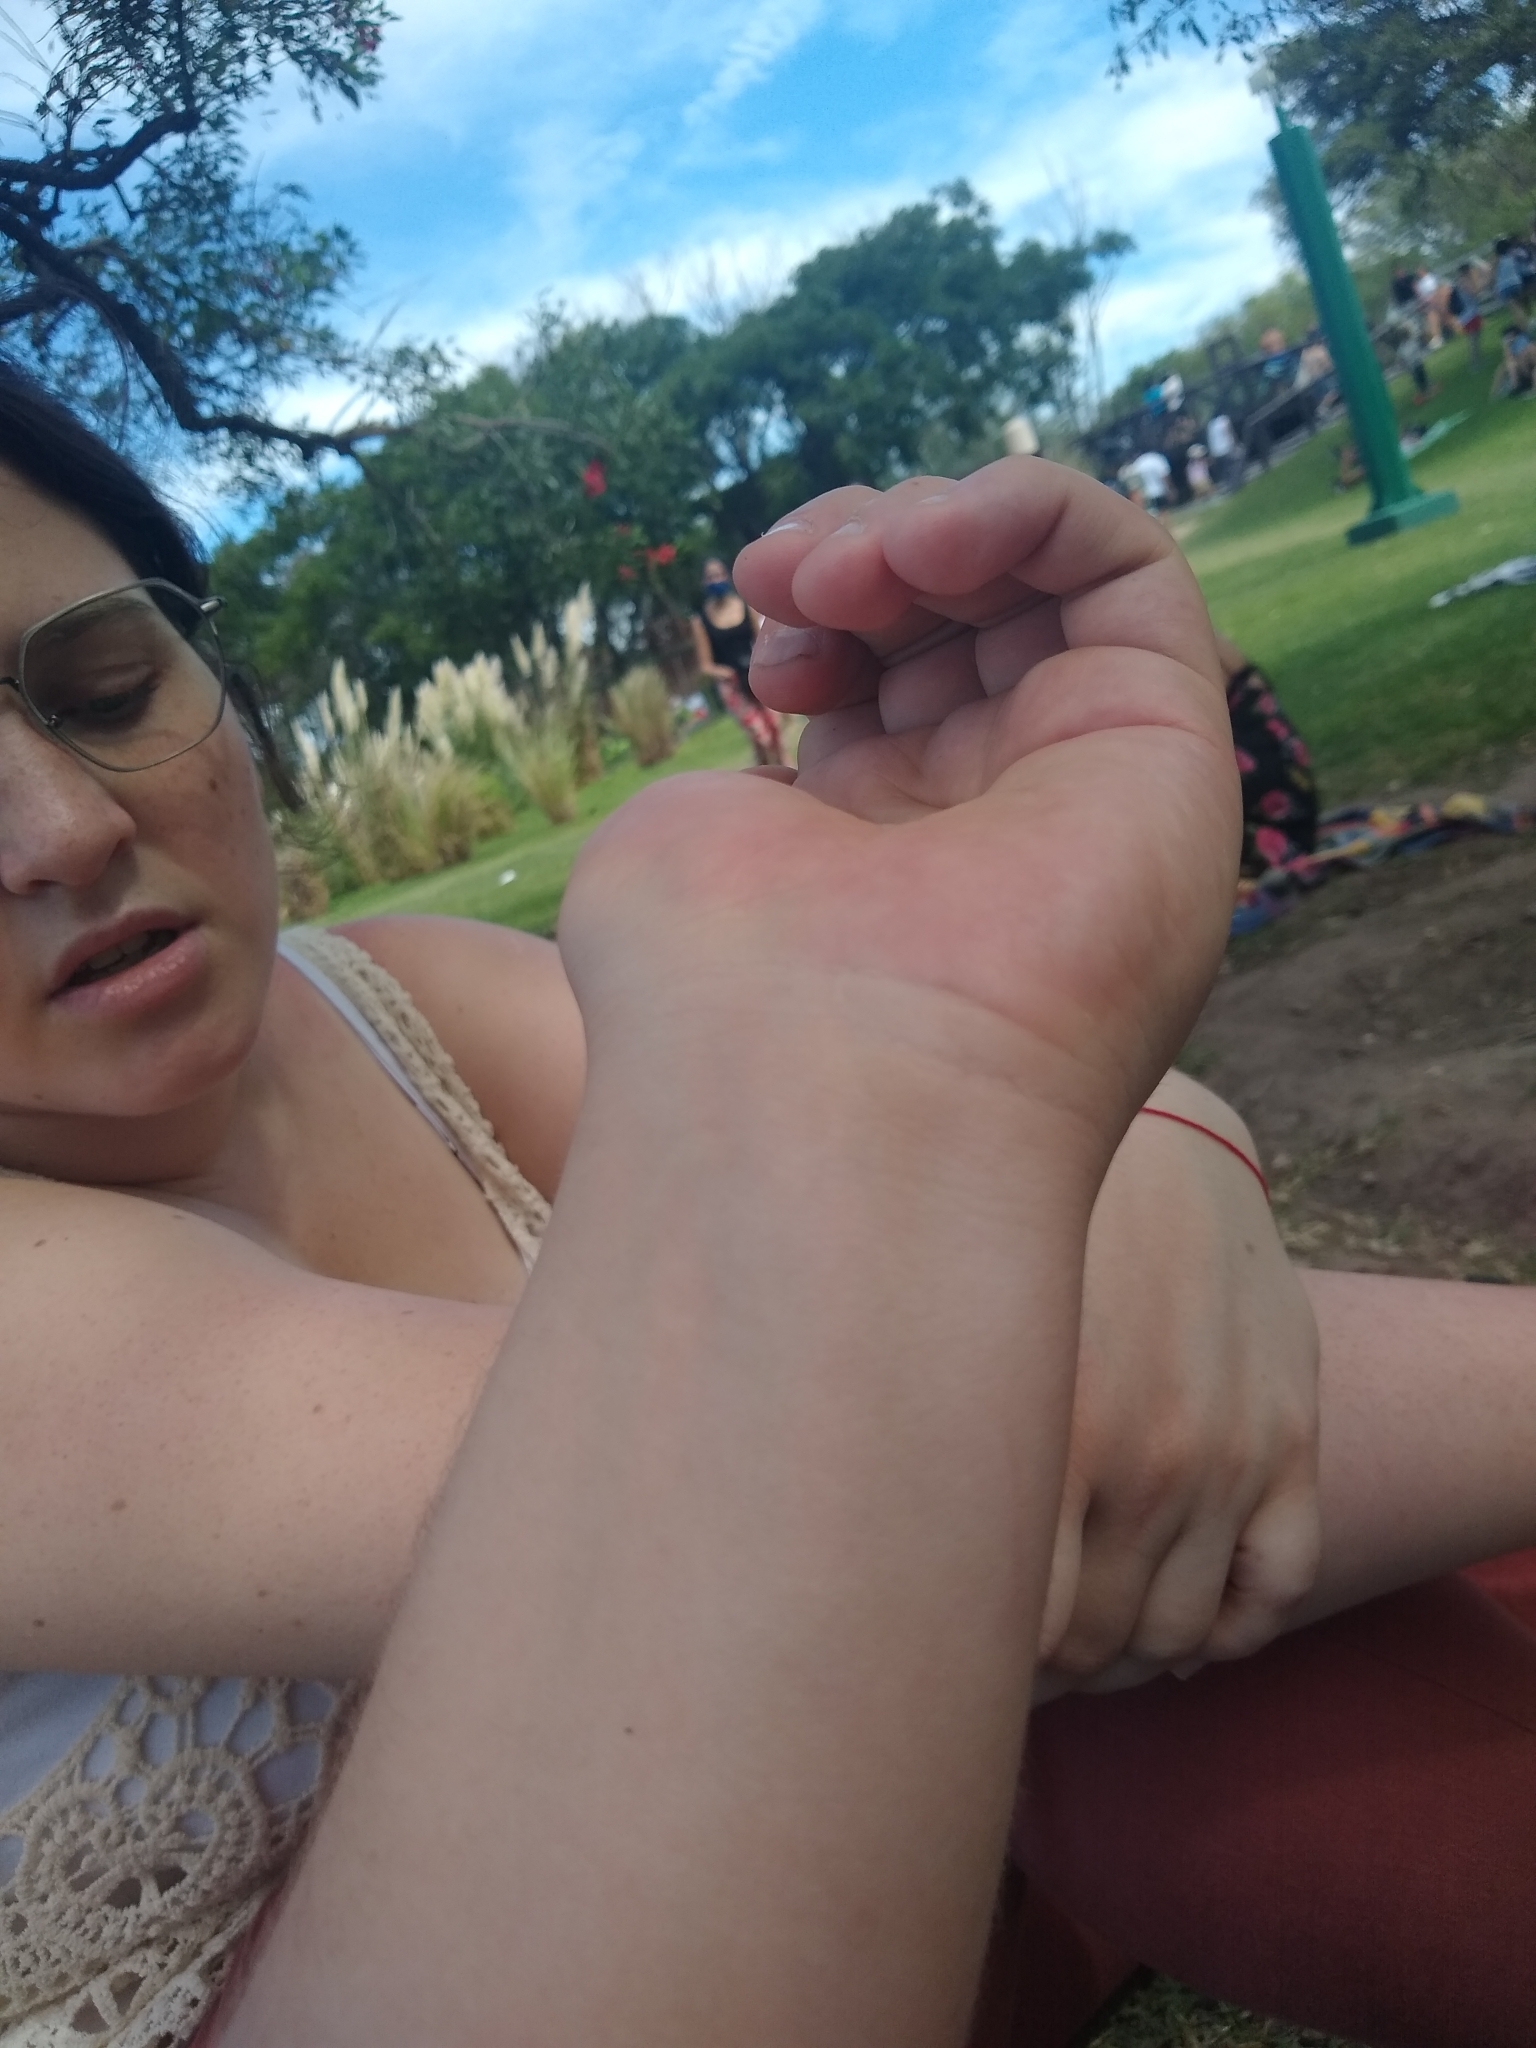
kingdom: Animalia
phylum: Arthropoda
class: Insecta
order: Coleoptera
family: Melyridae
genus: Astylus
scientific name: Astylus atromaculatus
